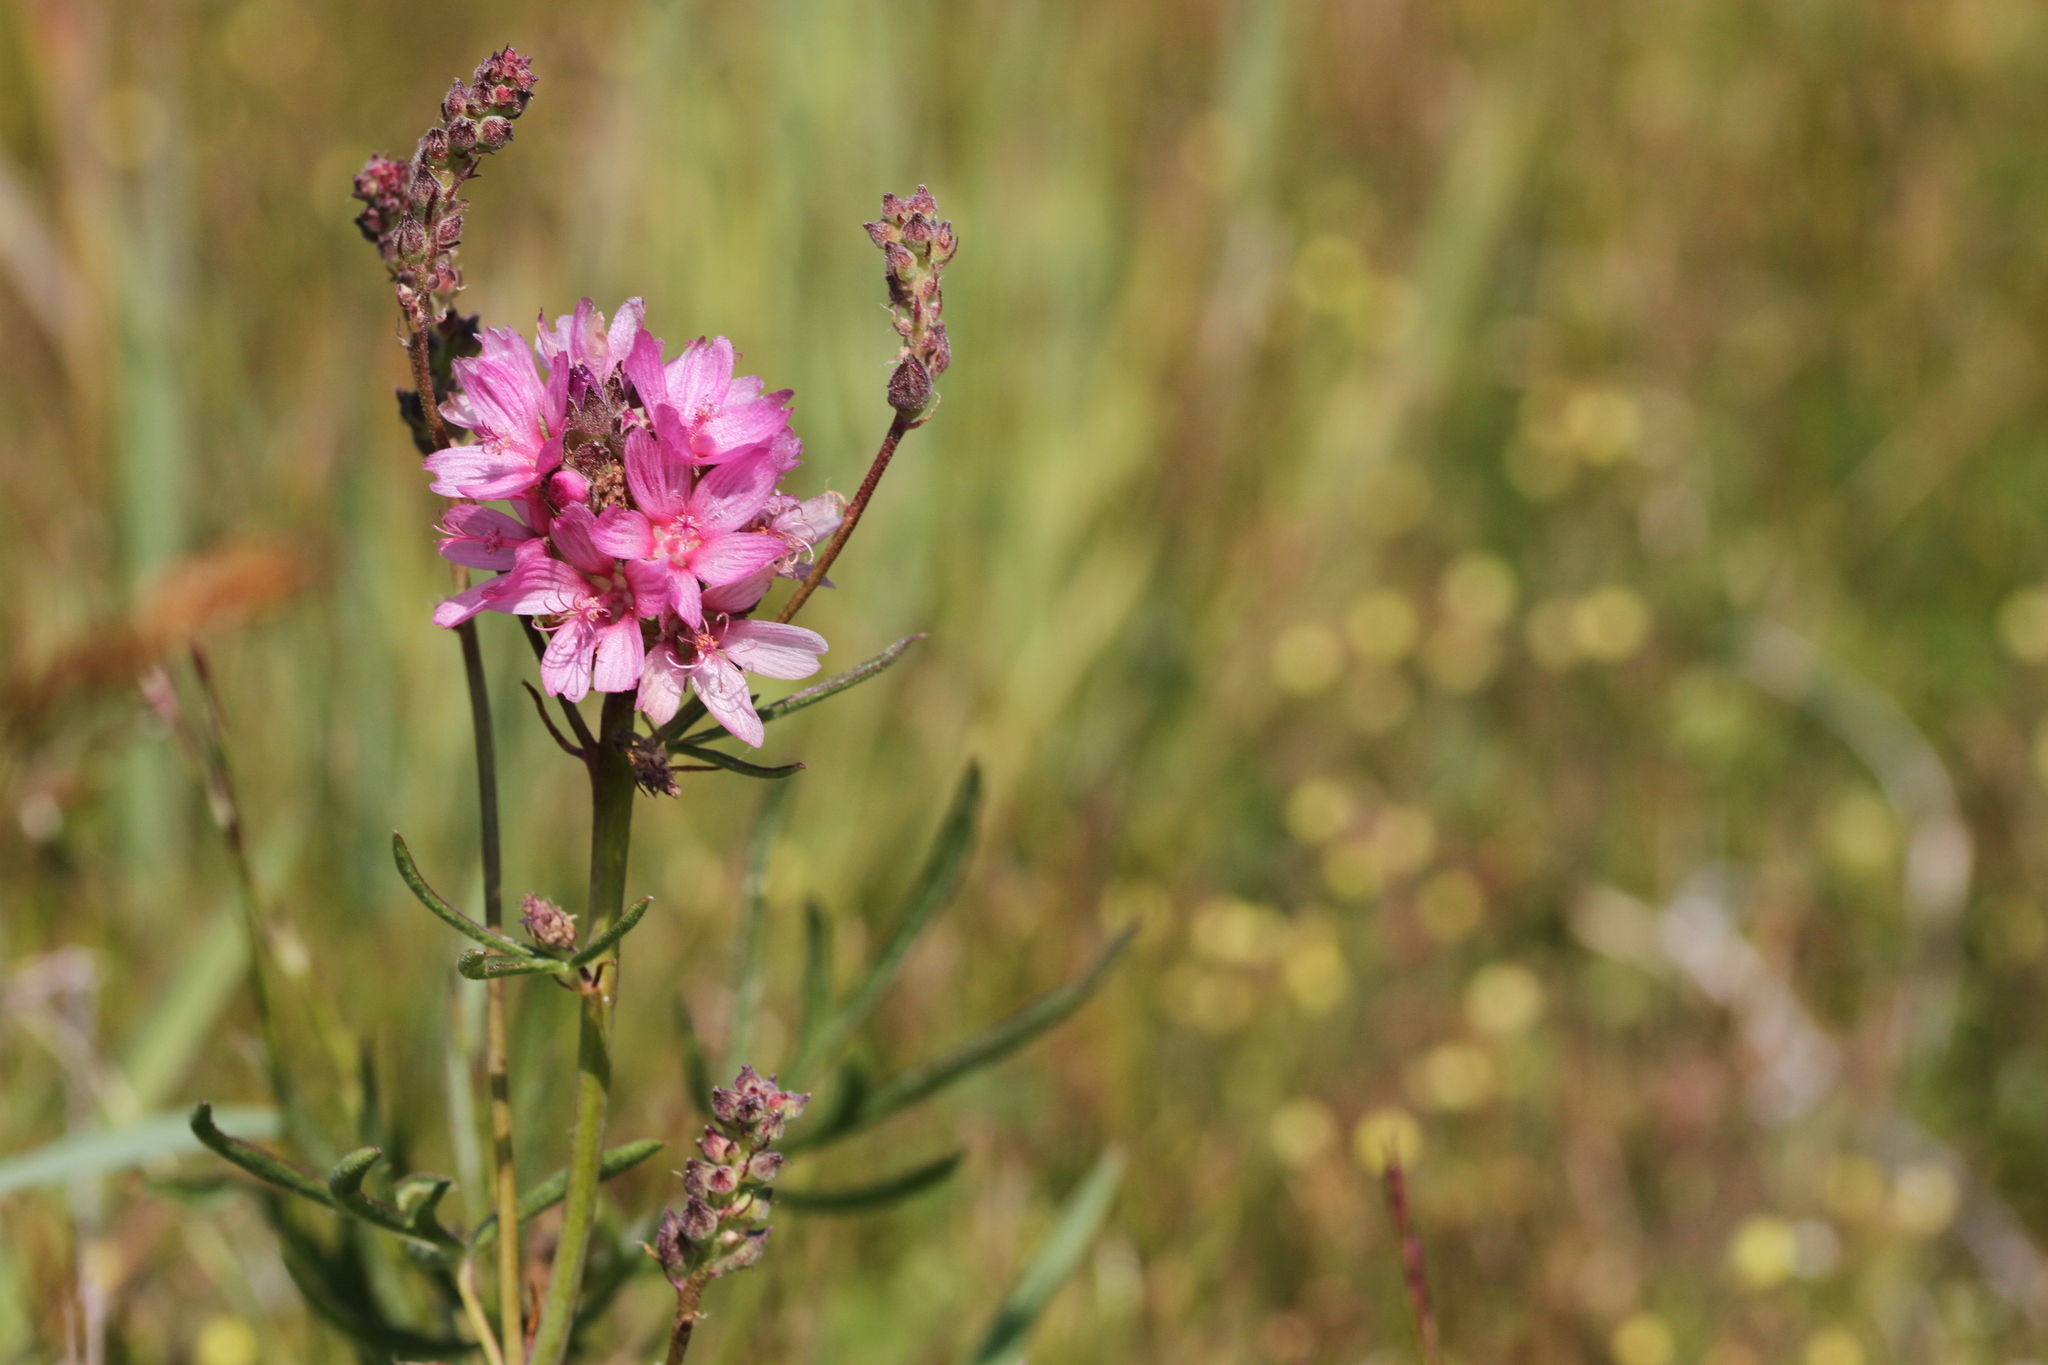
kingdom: Plantae
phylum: Tracheophyta
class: Magnoliopsida
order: Malvales
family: Malvaceae
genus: Sidalcea
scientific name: Sidalcea oregana
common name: Oregon checker-mallow
